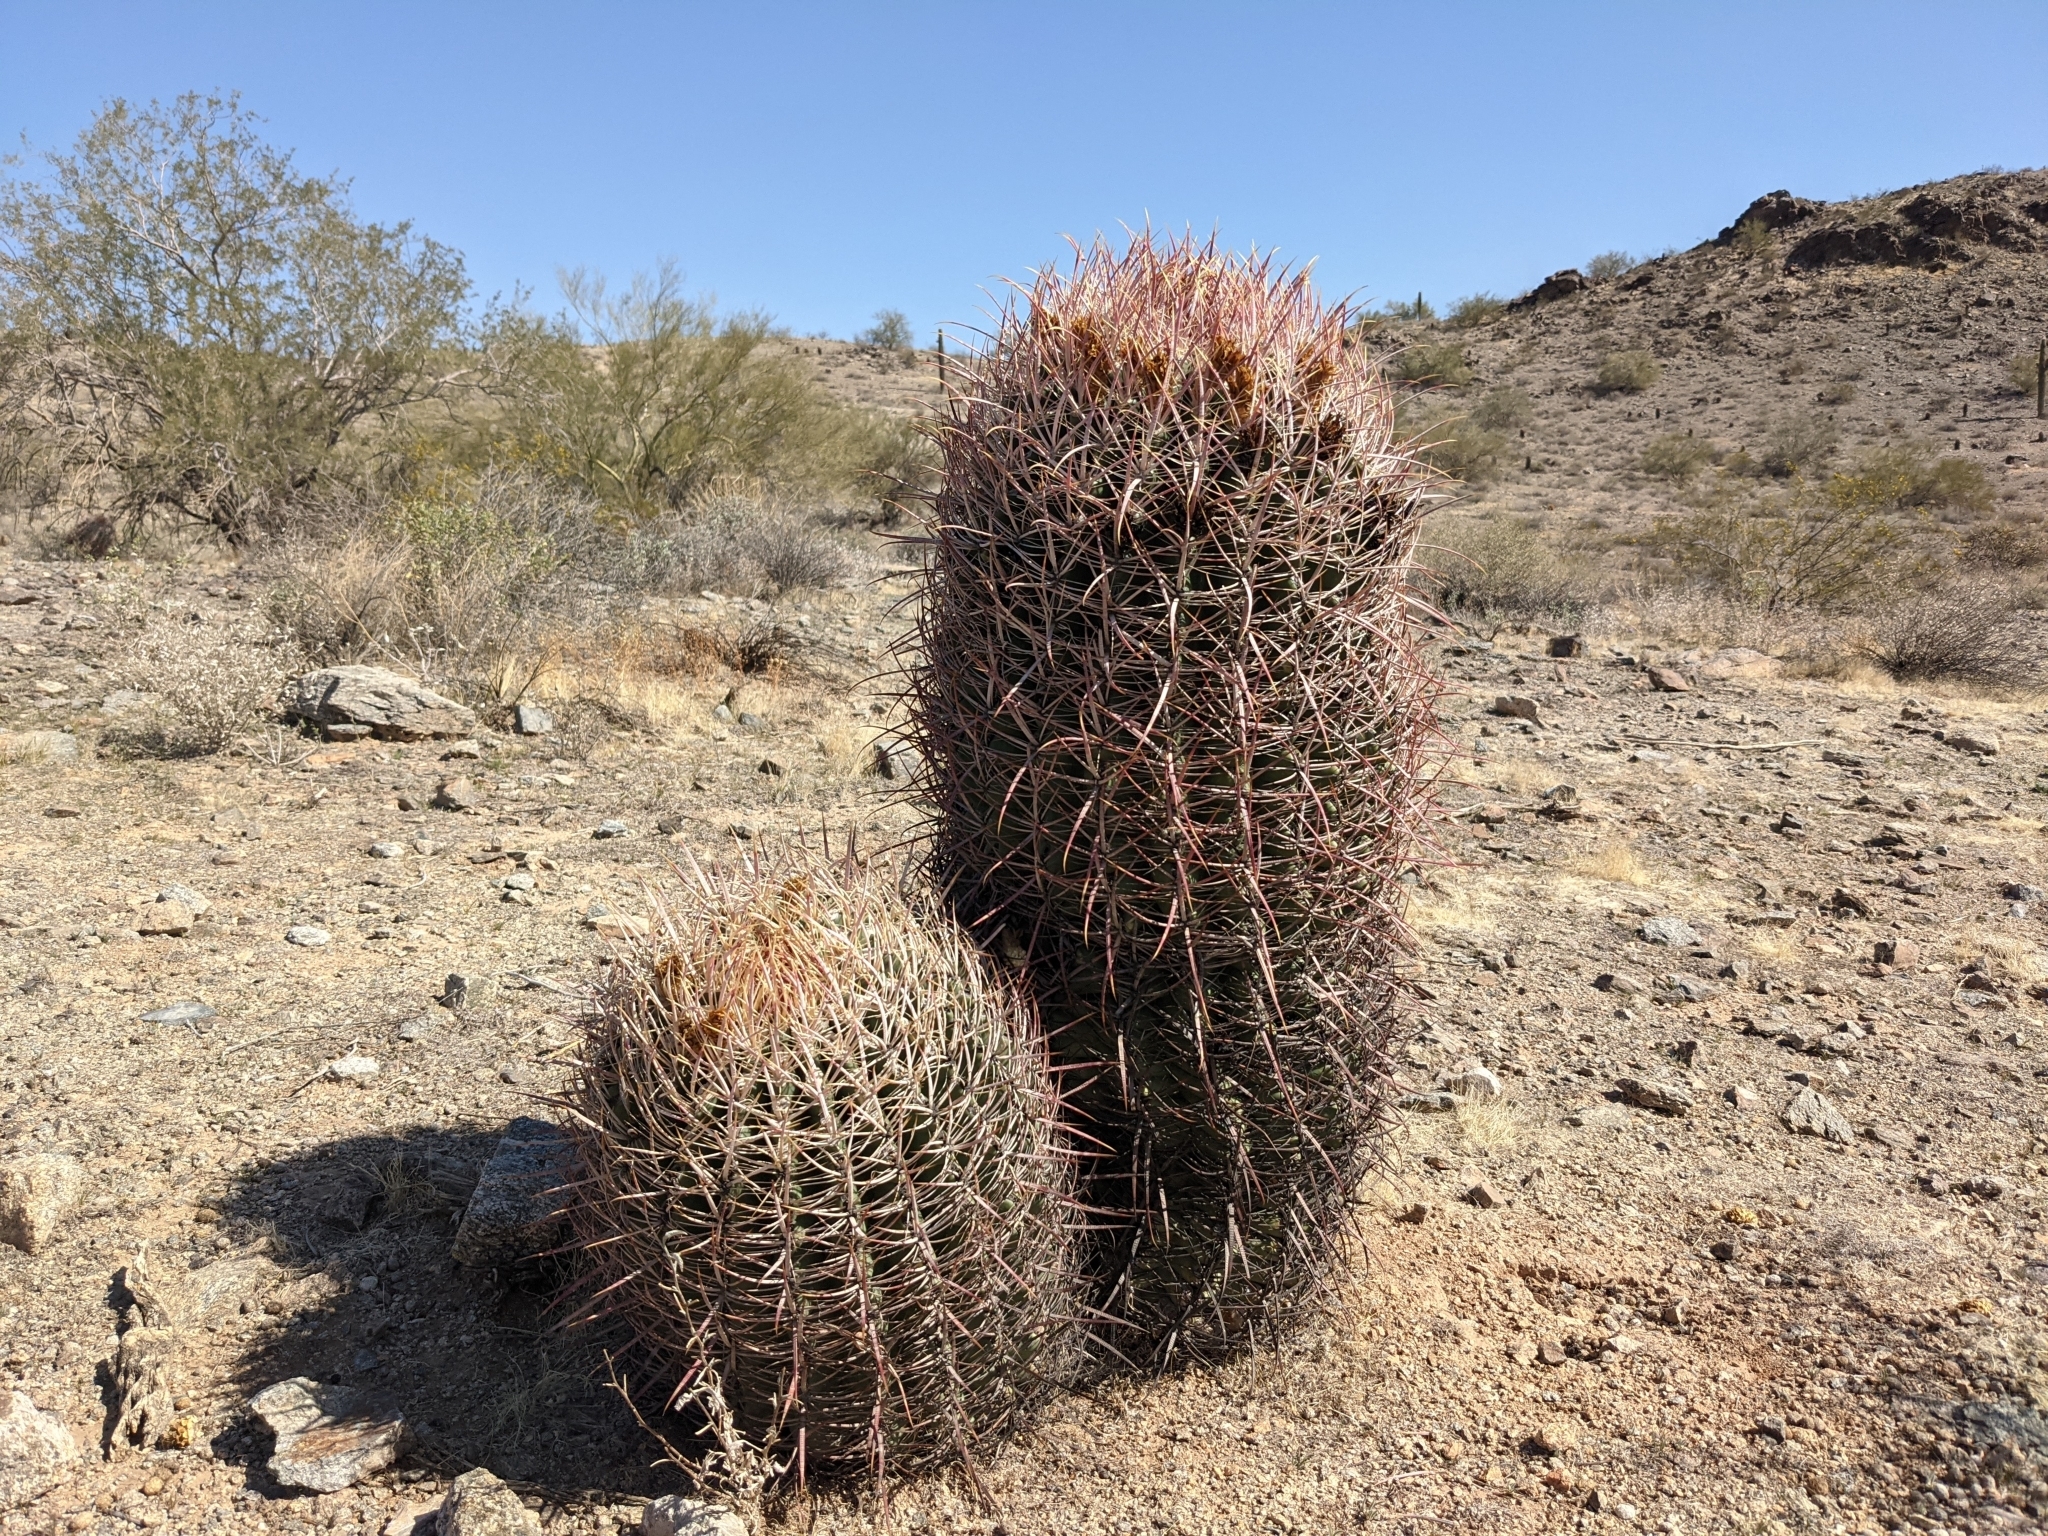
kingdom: Plantae
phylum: Tracheophyta
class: Magnoliopsida
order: Caryophyllales
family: Cactaceae
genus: Ferocactus
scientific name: Ferocactus cylindraceus
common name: California barrel cactus
